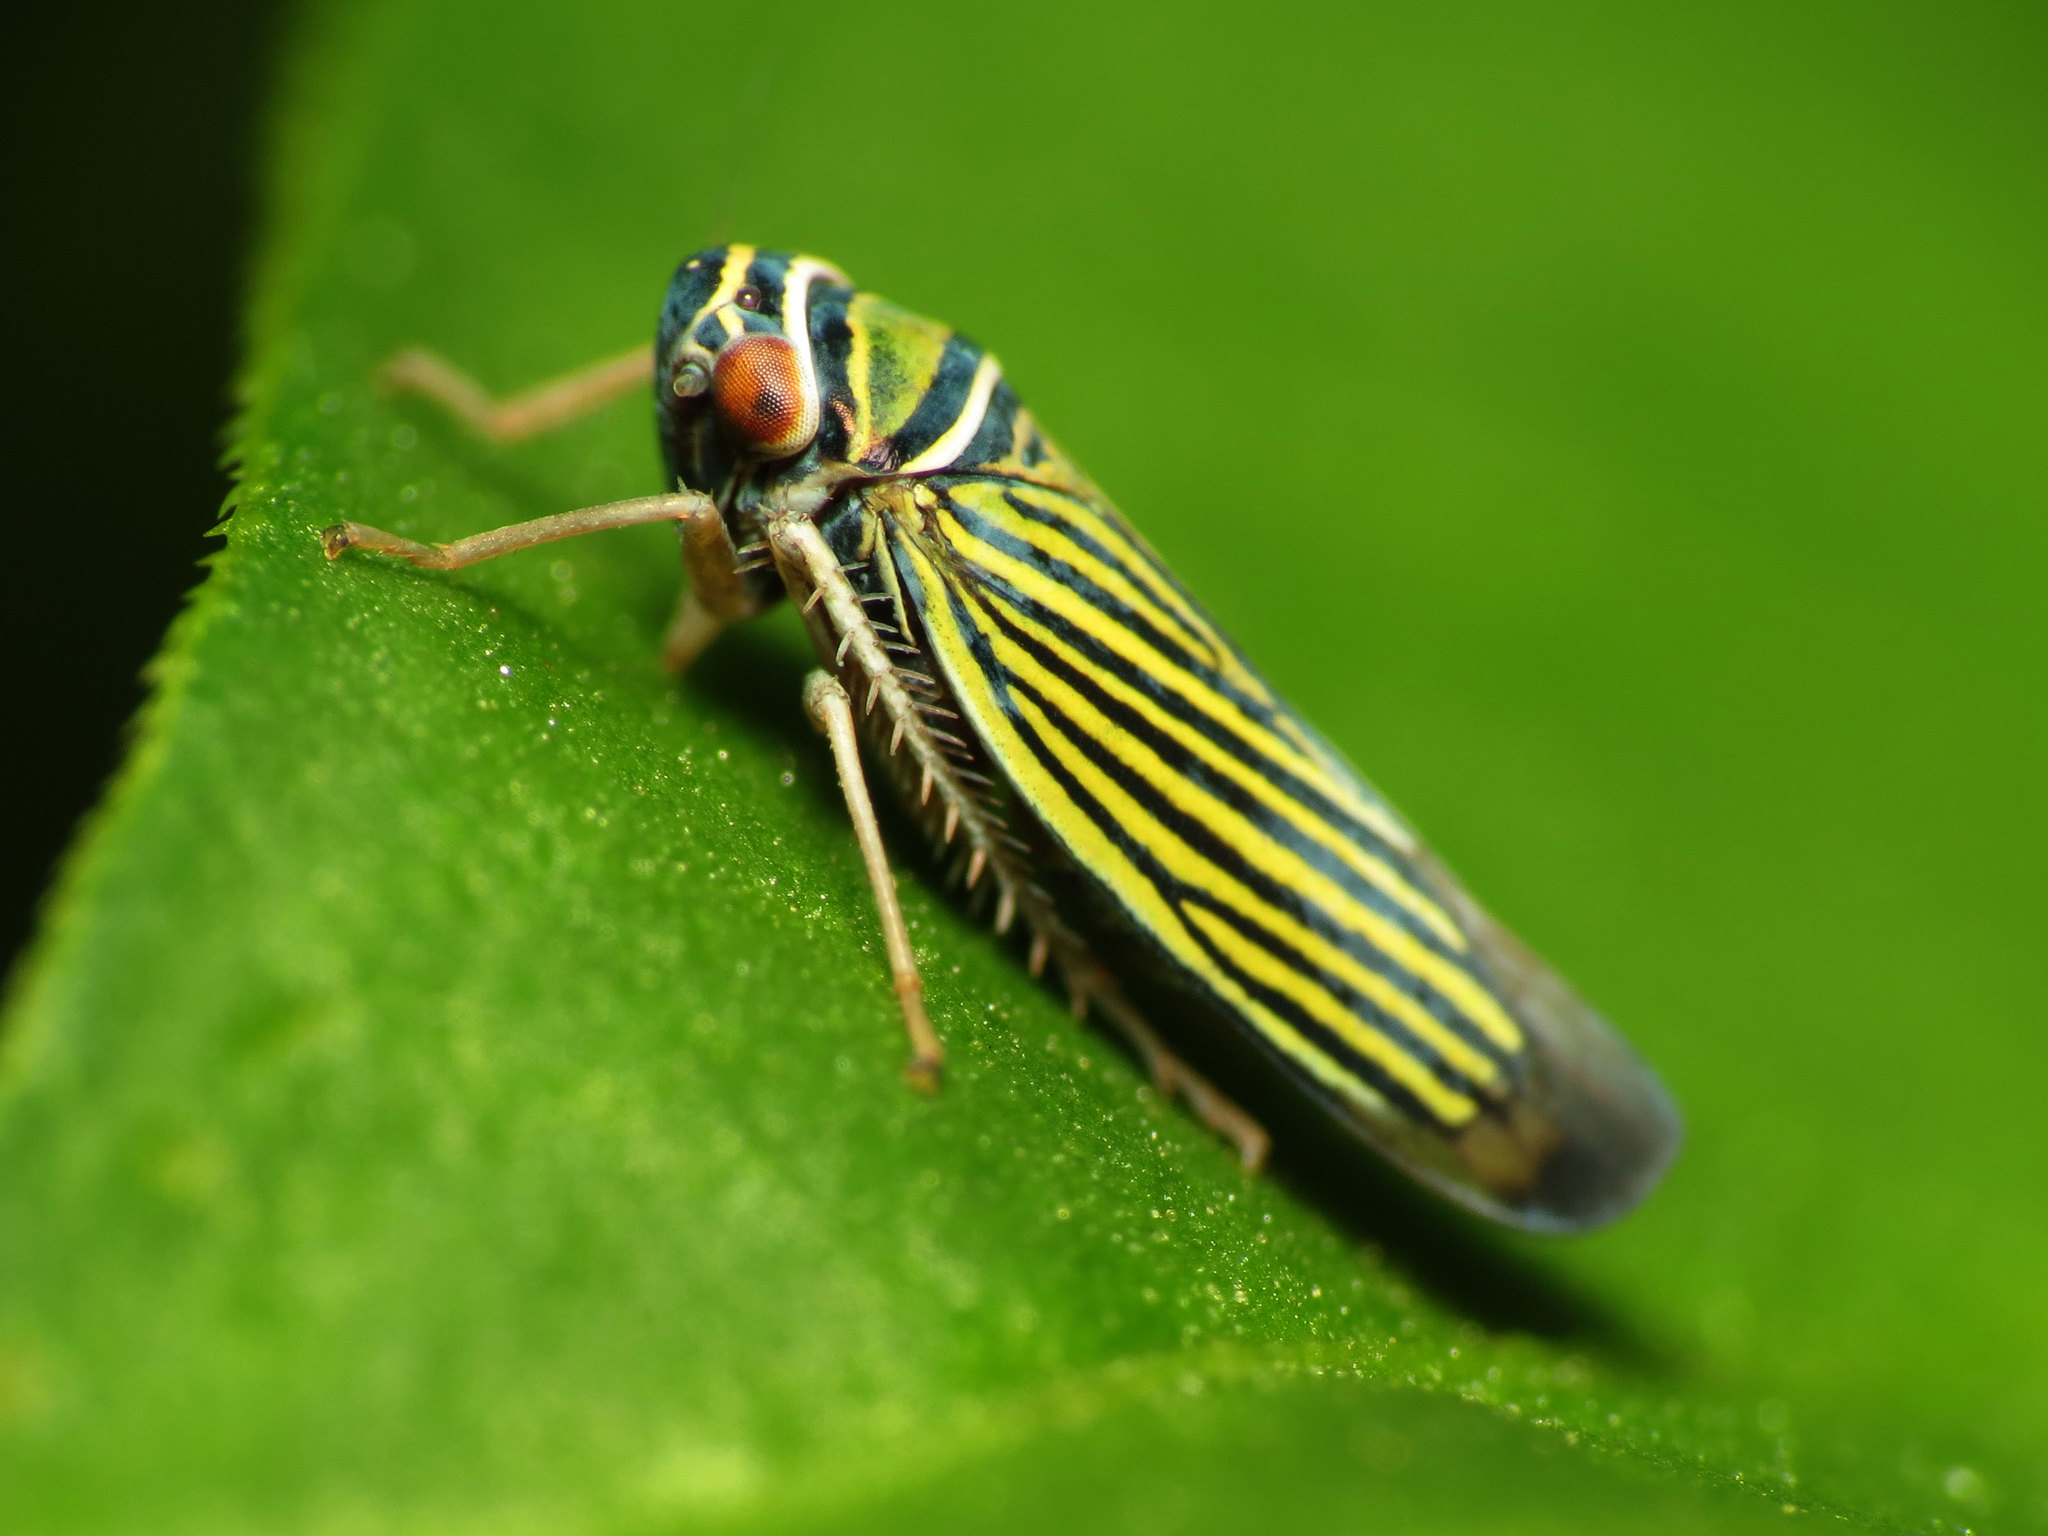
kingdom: Animalia
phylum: Arthropoda
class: Insecta
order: Hemiptera
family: Cicadellidae
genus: Tylozygus
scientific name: Tylozygus bifidus
